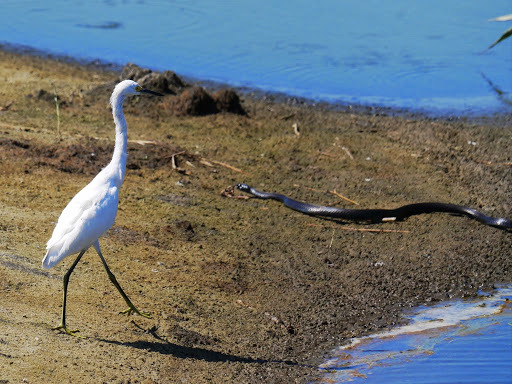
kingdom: Animalia
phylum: Chordata
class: Aves
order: Pelecaniformes
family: Ardeidae
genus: Egretta
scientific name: Egretta thula
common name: Snowy egret
